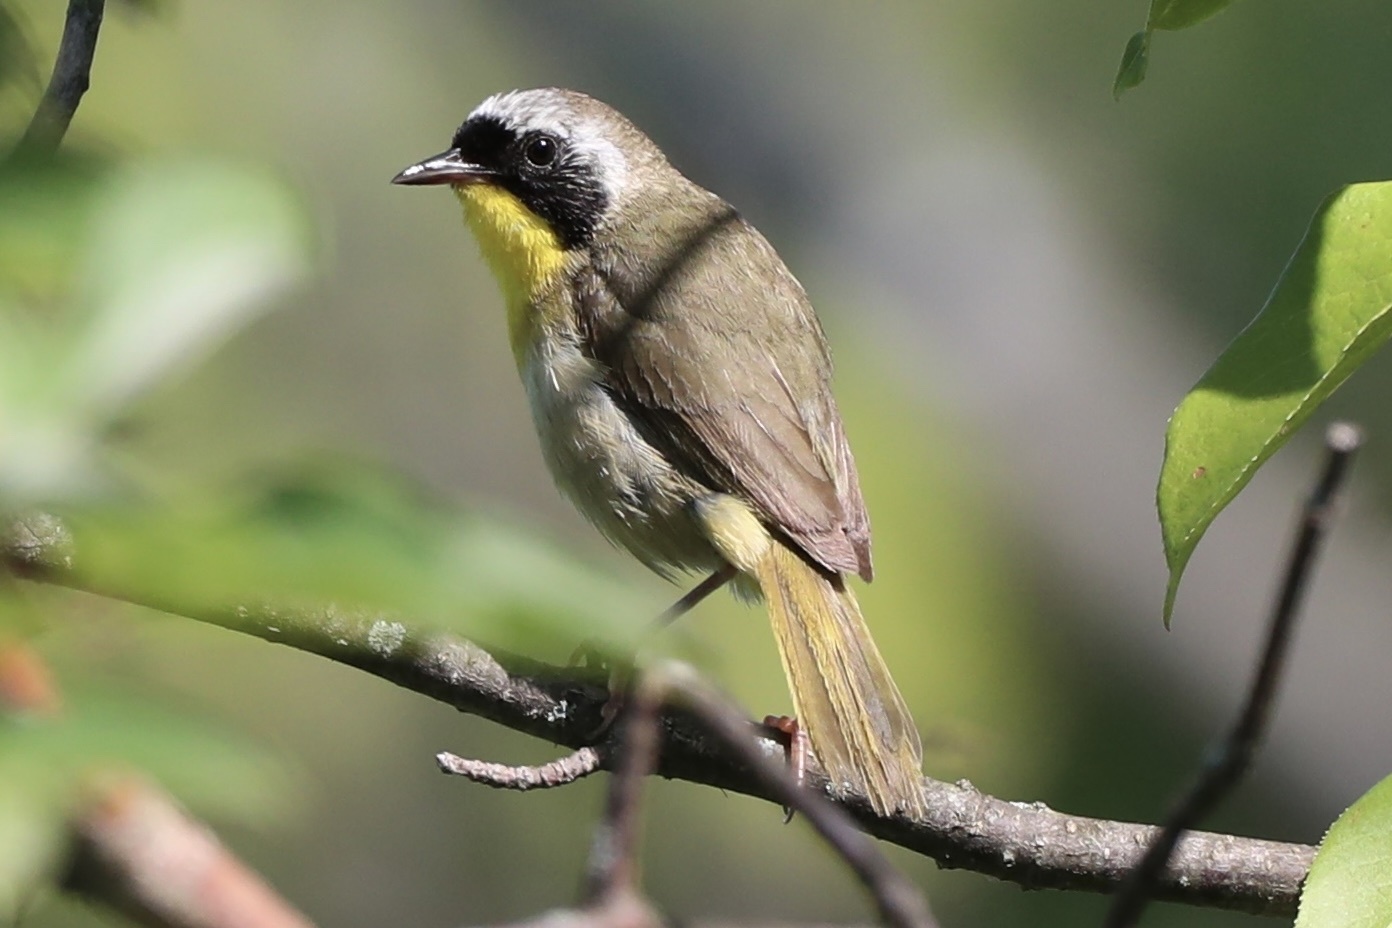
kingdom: Animalia
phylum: Chordata
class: Aves
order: Passeriformes
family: Parulidae
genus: Geothlypis
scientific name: Geothlypis trichas
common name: Common yellowthroat
